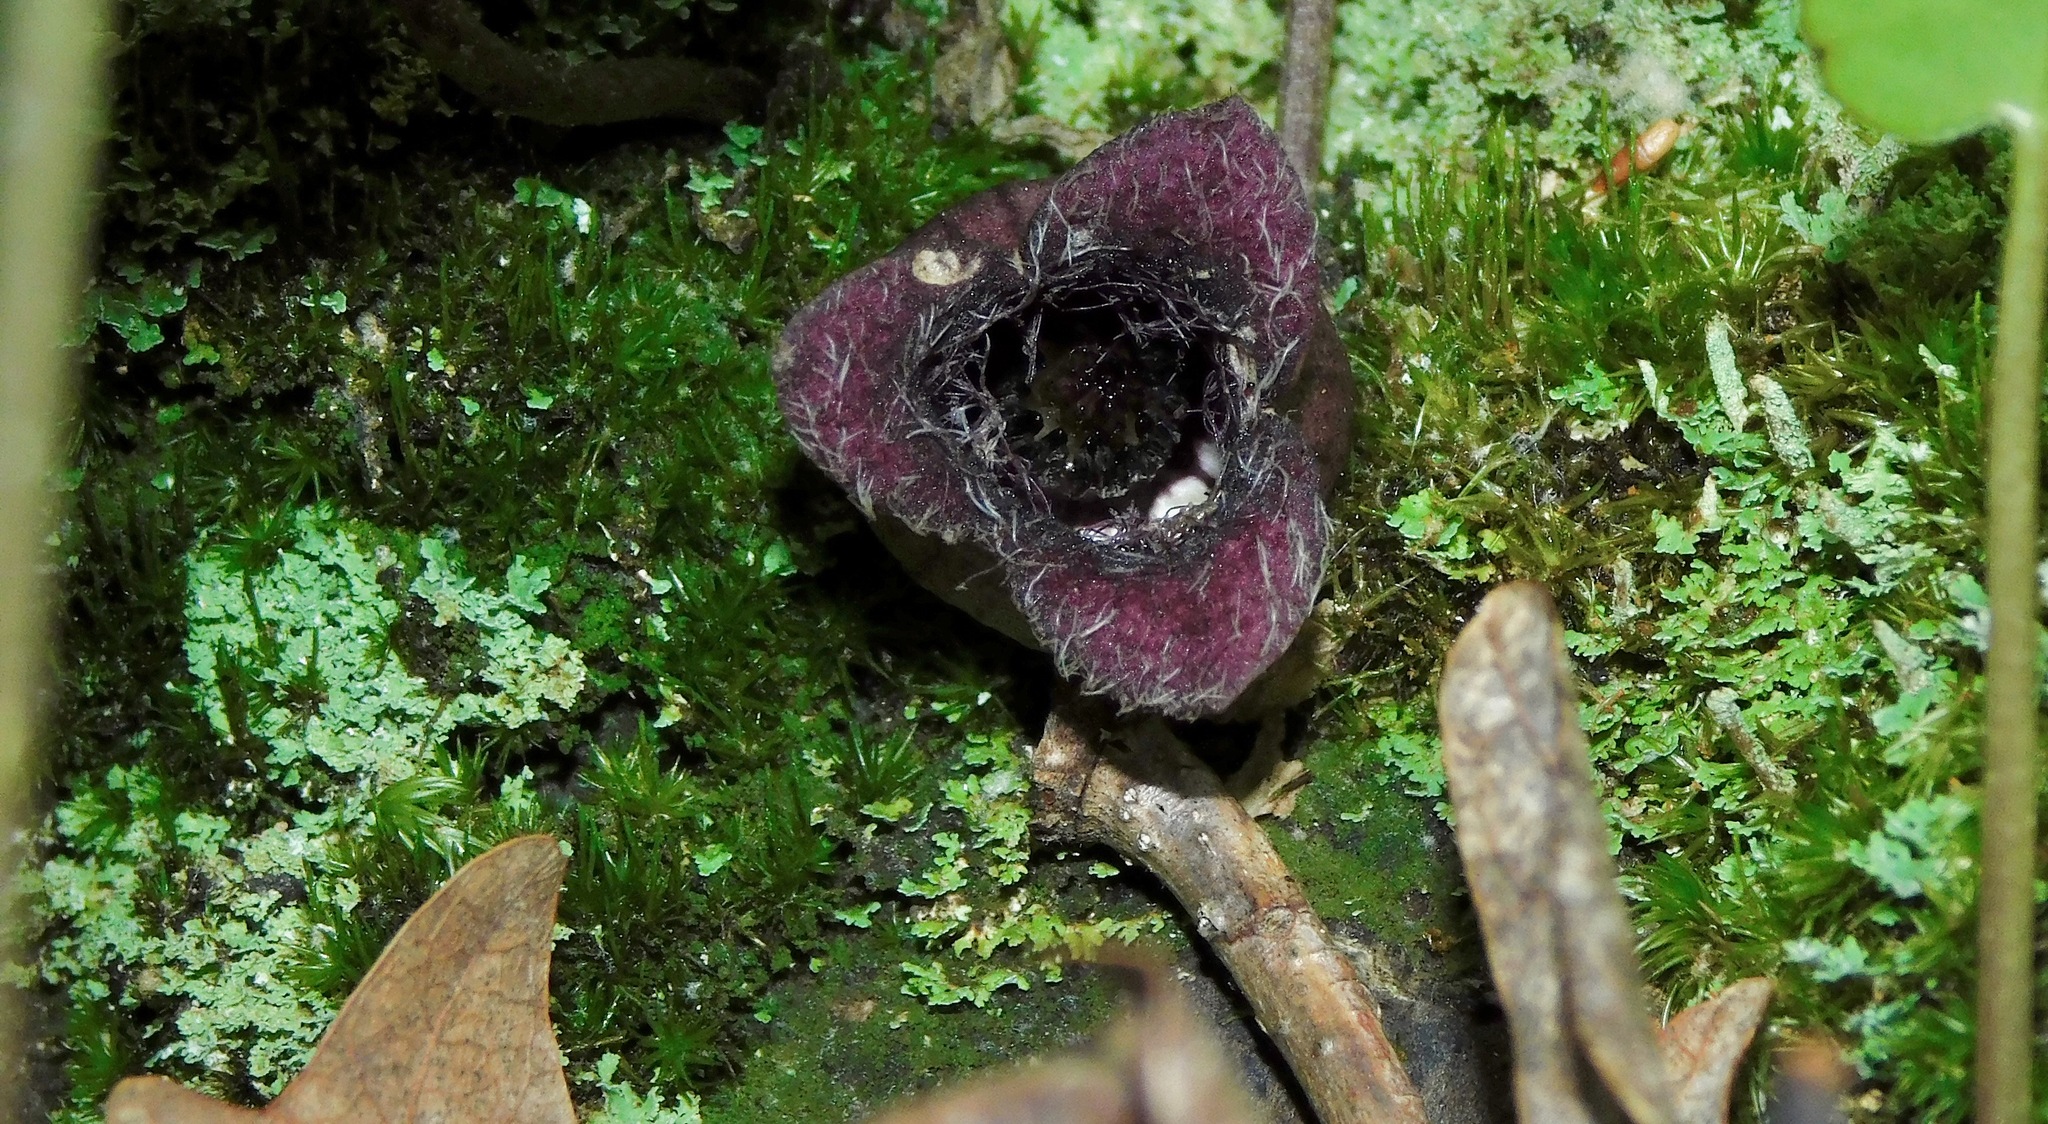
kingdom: Plantae
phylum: Tracheophyta
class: Magnoliopsida
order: Piperales
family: Aristolochiaceae
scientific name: Aristolochiaceae
